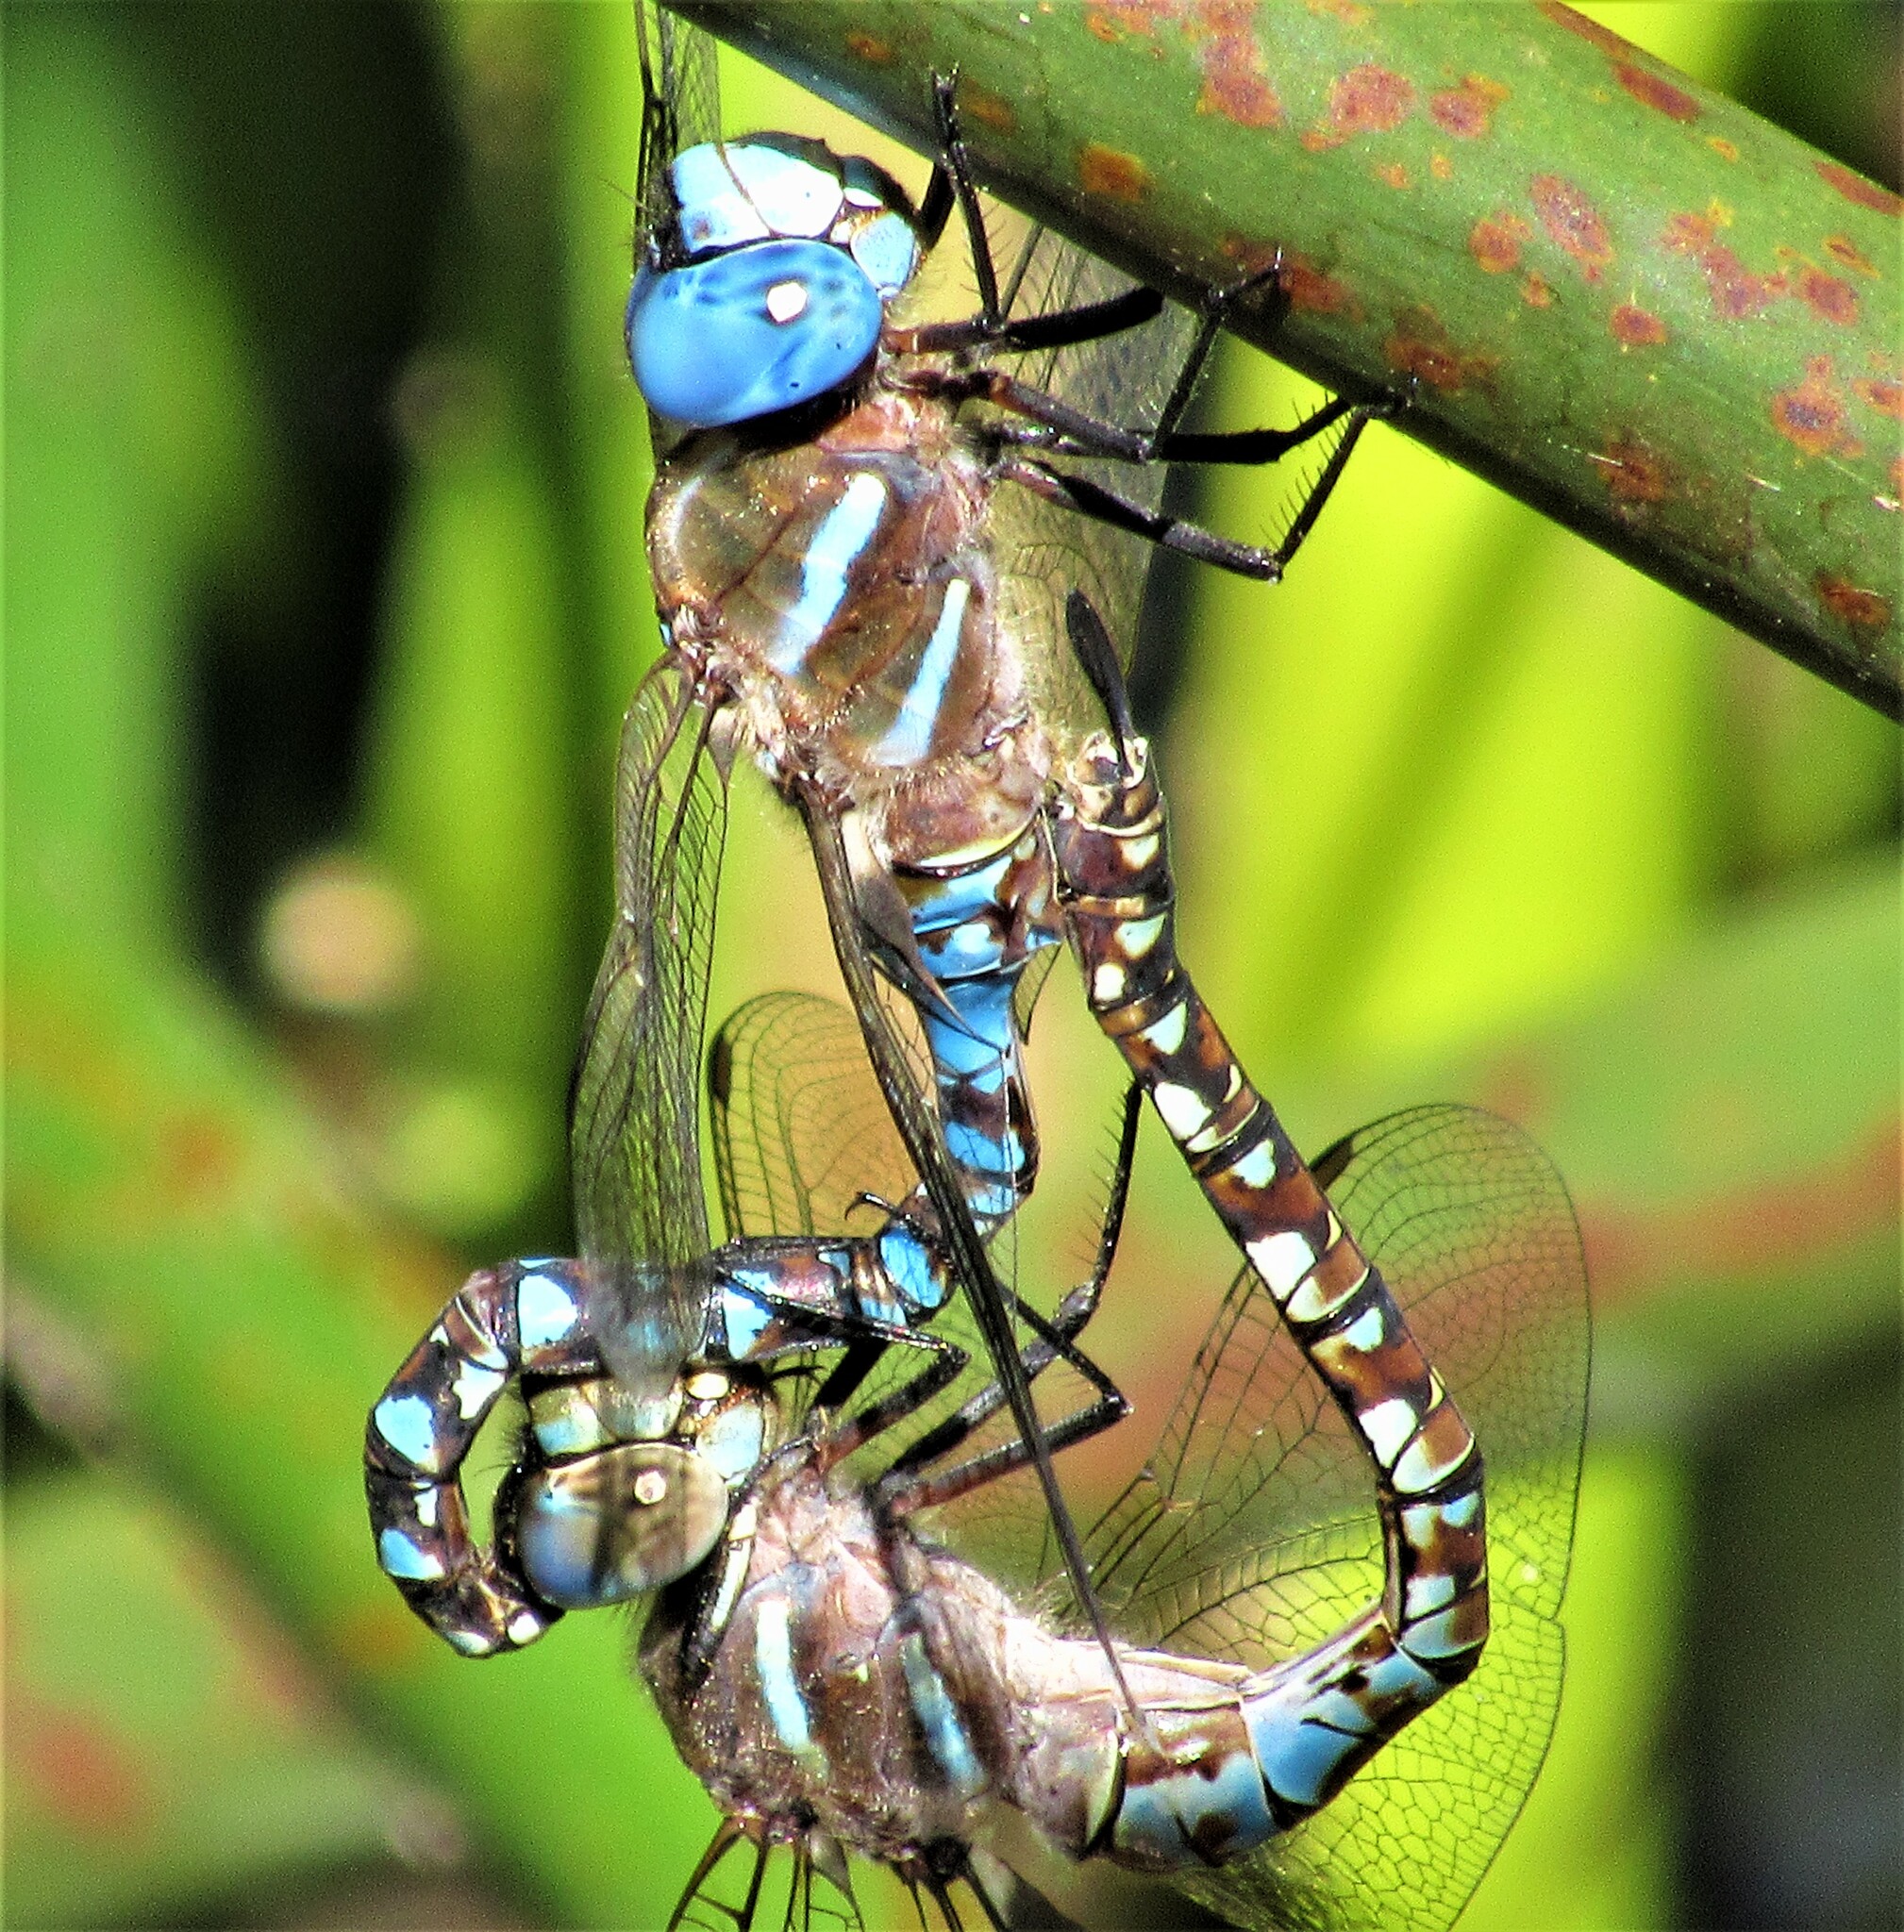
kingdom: Animalia
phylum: Arthropoda
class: Insecta
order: Odonata
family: Aeshnidae
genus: Rhionaeschna
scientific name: Rhionaeschna multicolor
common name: Blue-eyed darner
